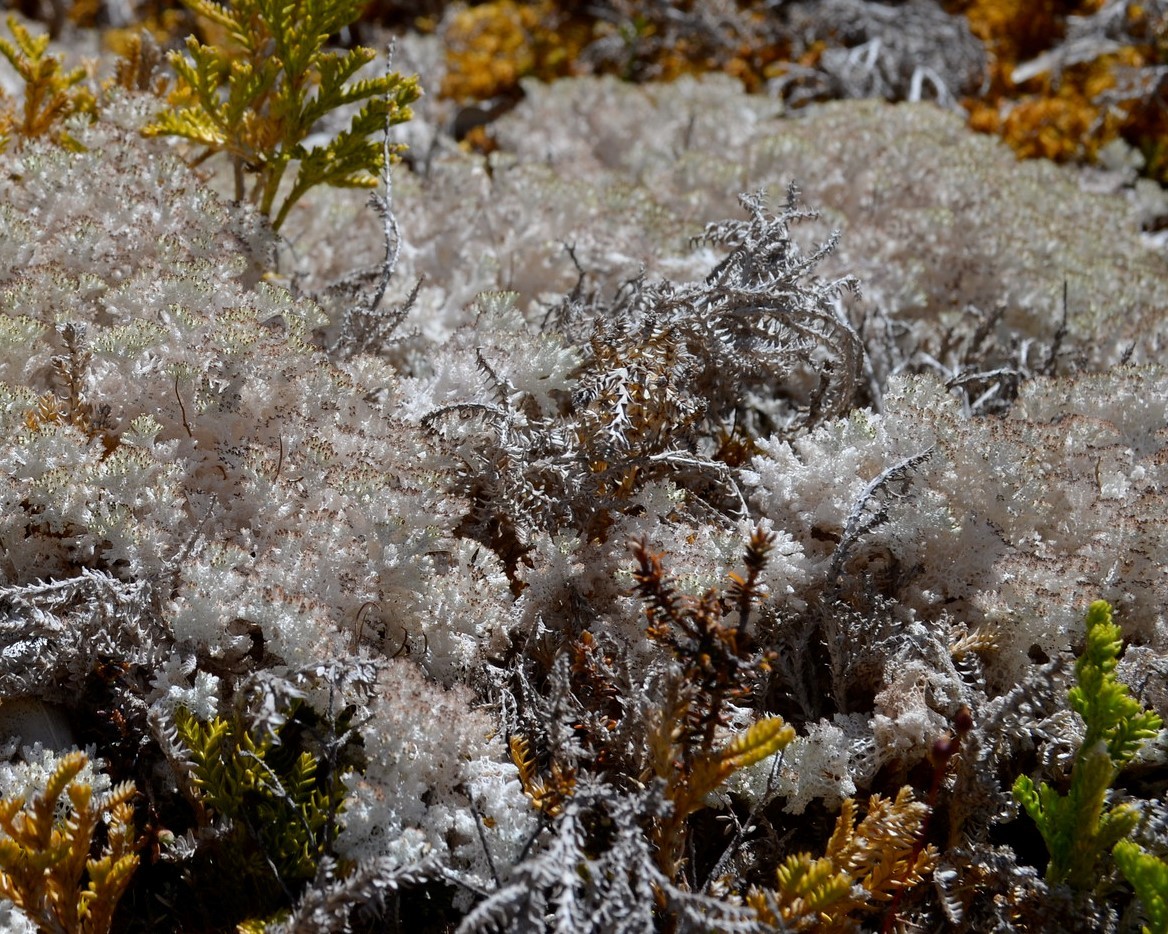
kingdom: Fungi
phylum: Ascomycota
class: Lecanoromycetes
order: Lecanorales
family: Cladoniaceae
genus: Pulchrocladia
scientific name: Pulchrocladia retipora
